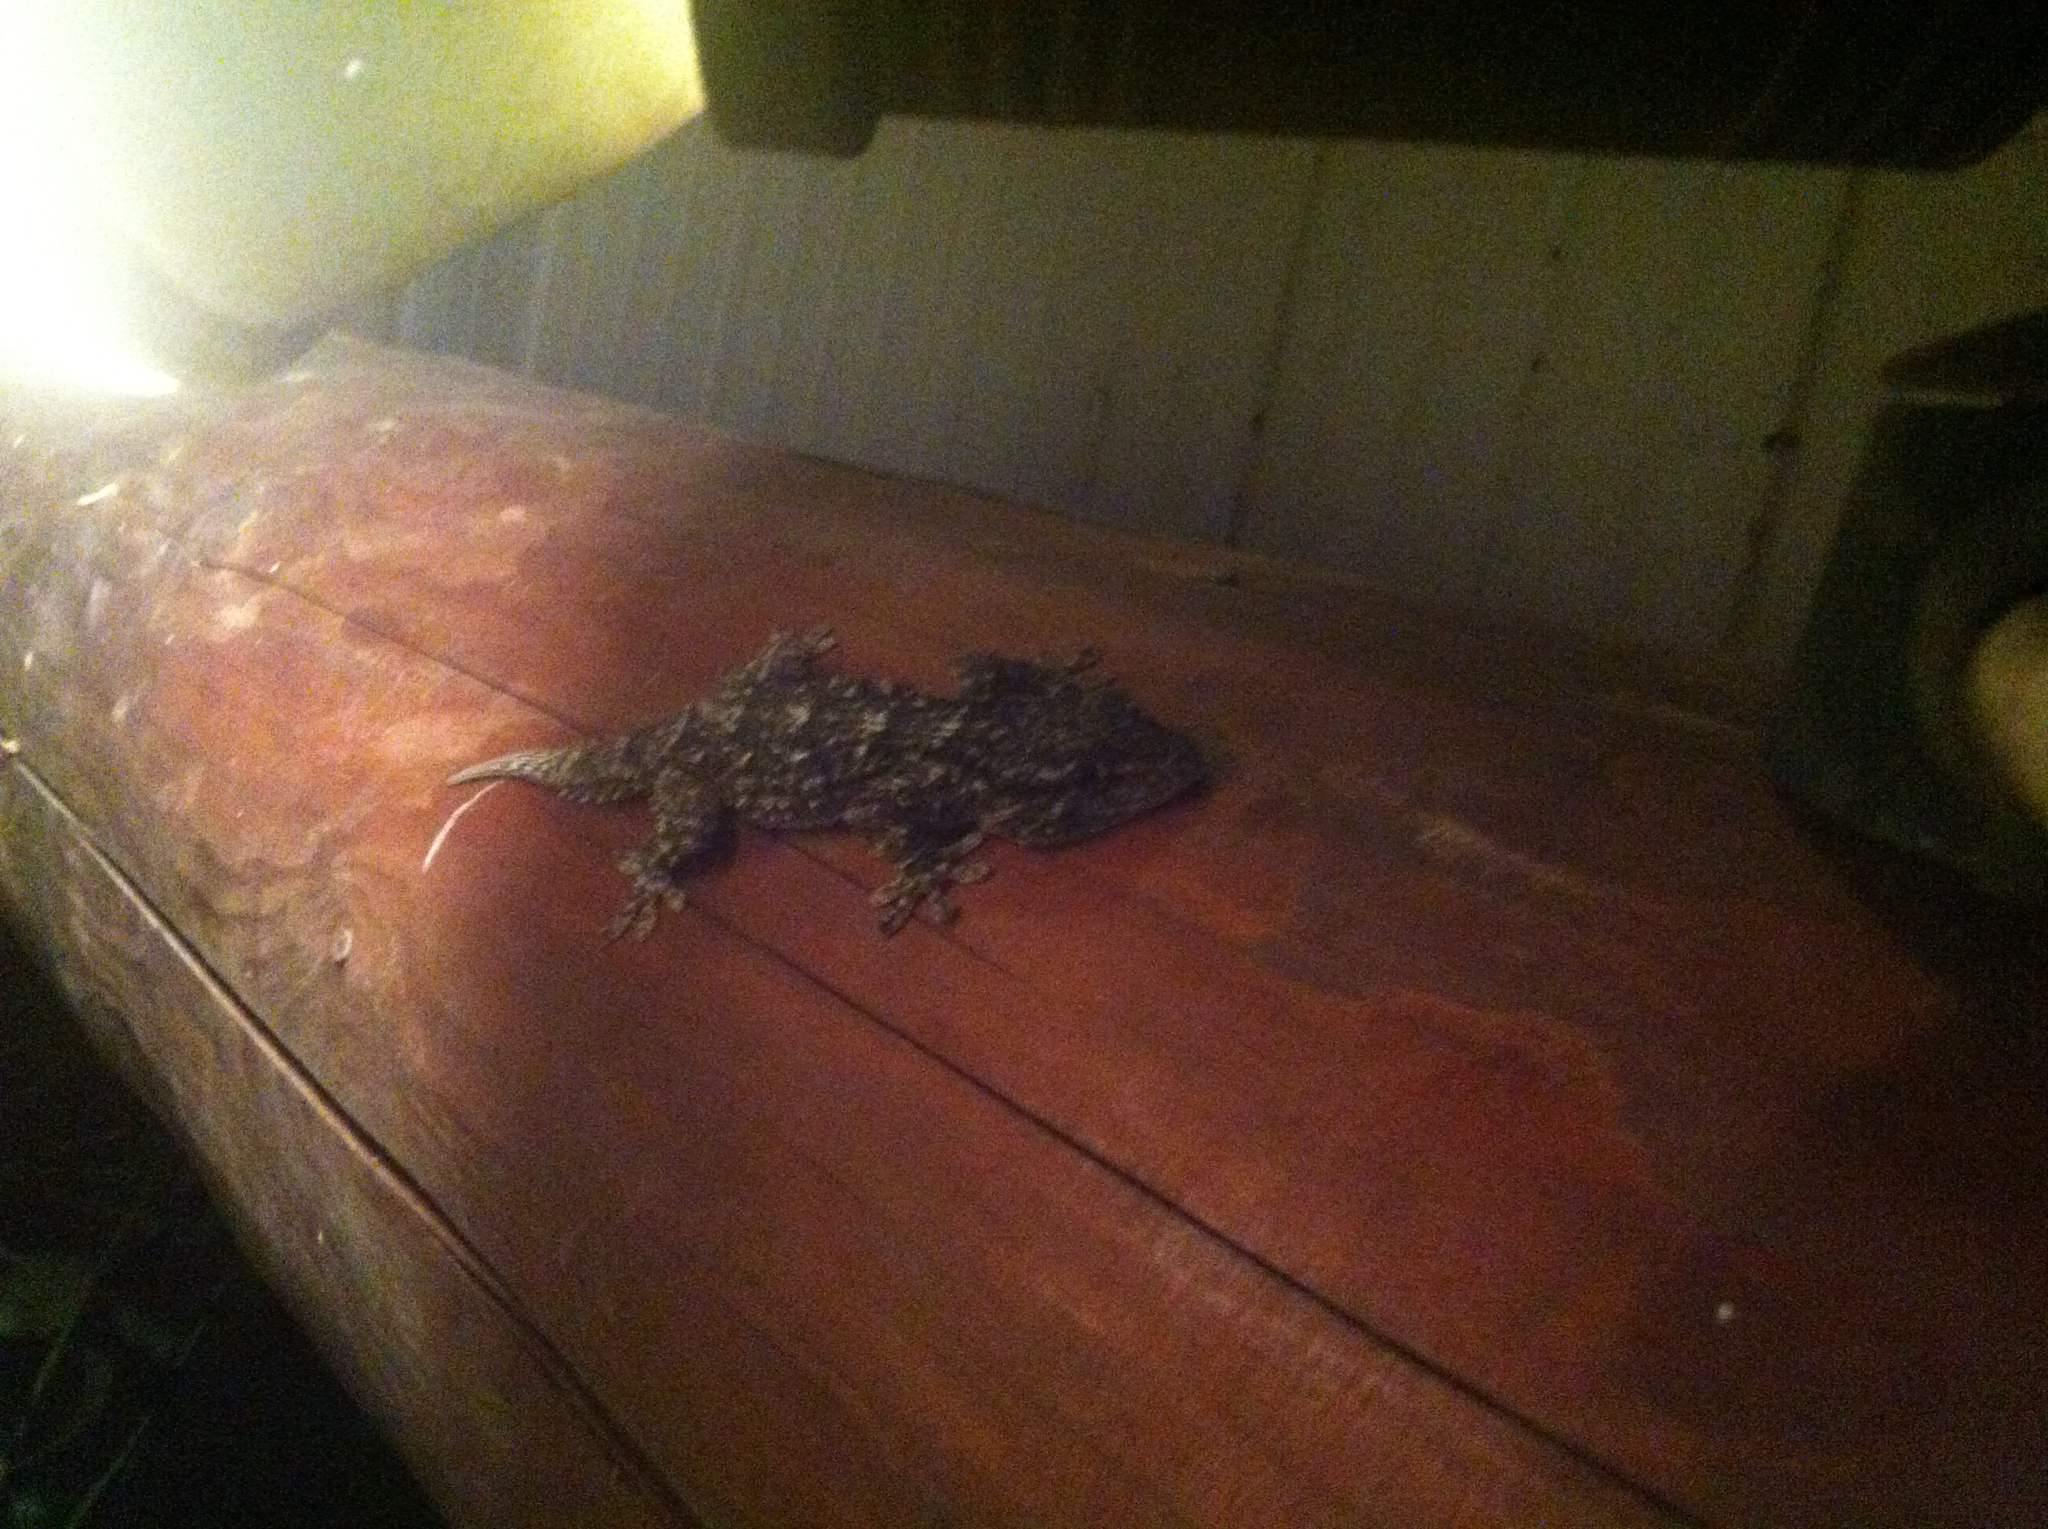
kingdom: Animalia
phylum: Chordata
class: Squamata
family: Phyllodactylidae
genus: Tarentola
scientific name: Tarentola mauritanica
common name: Moorish gecko
